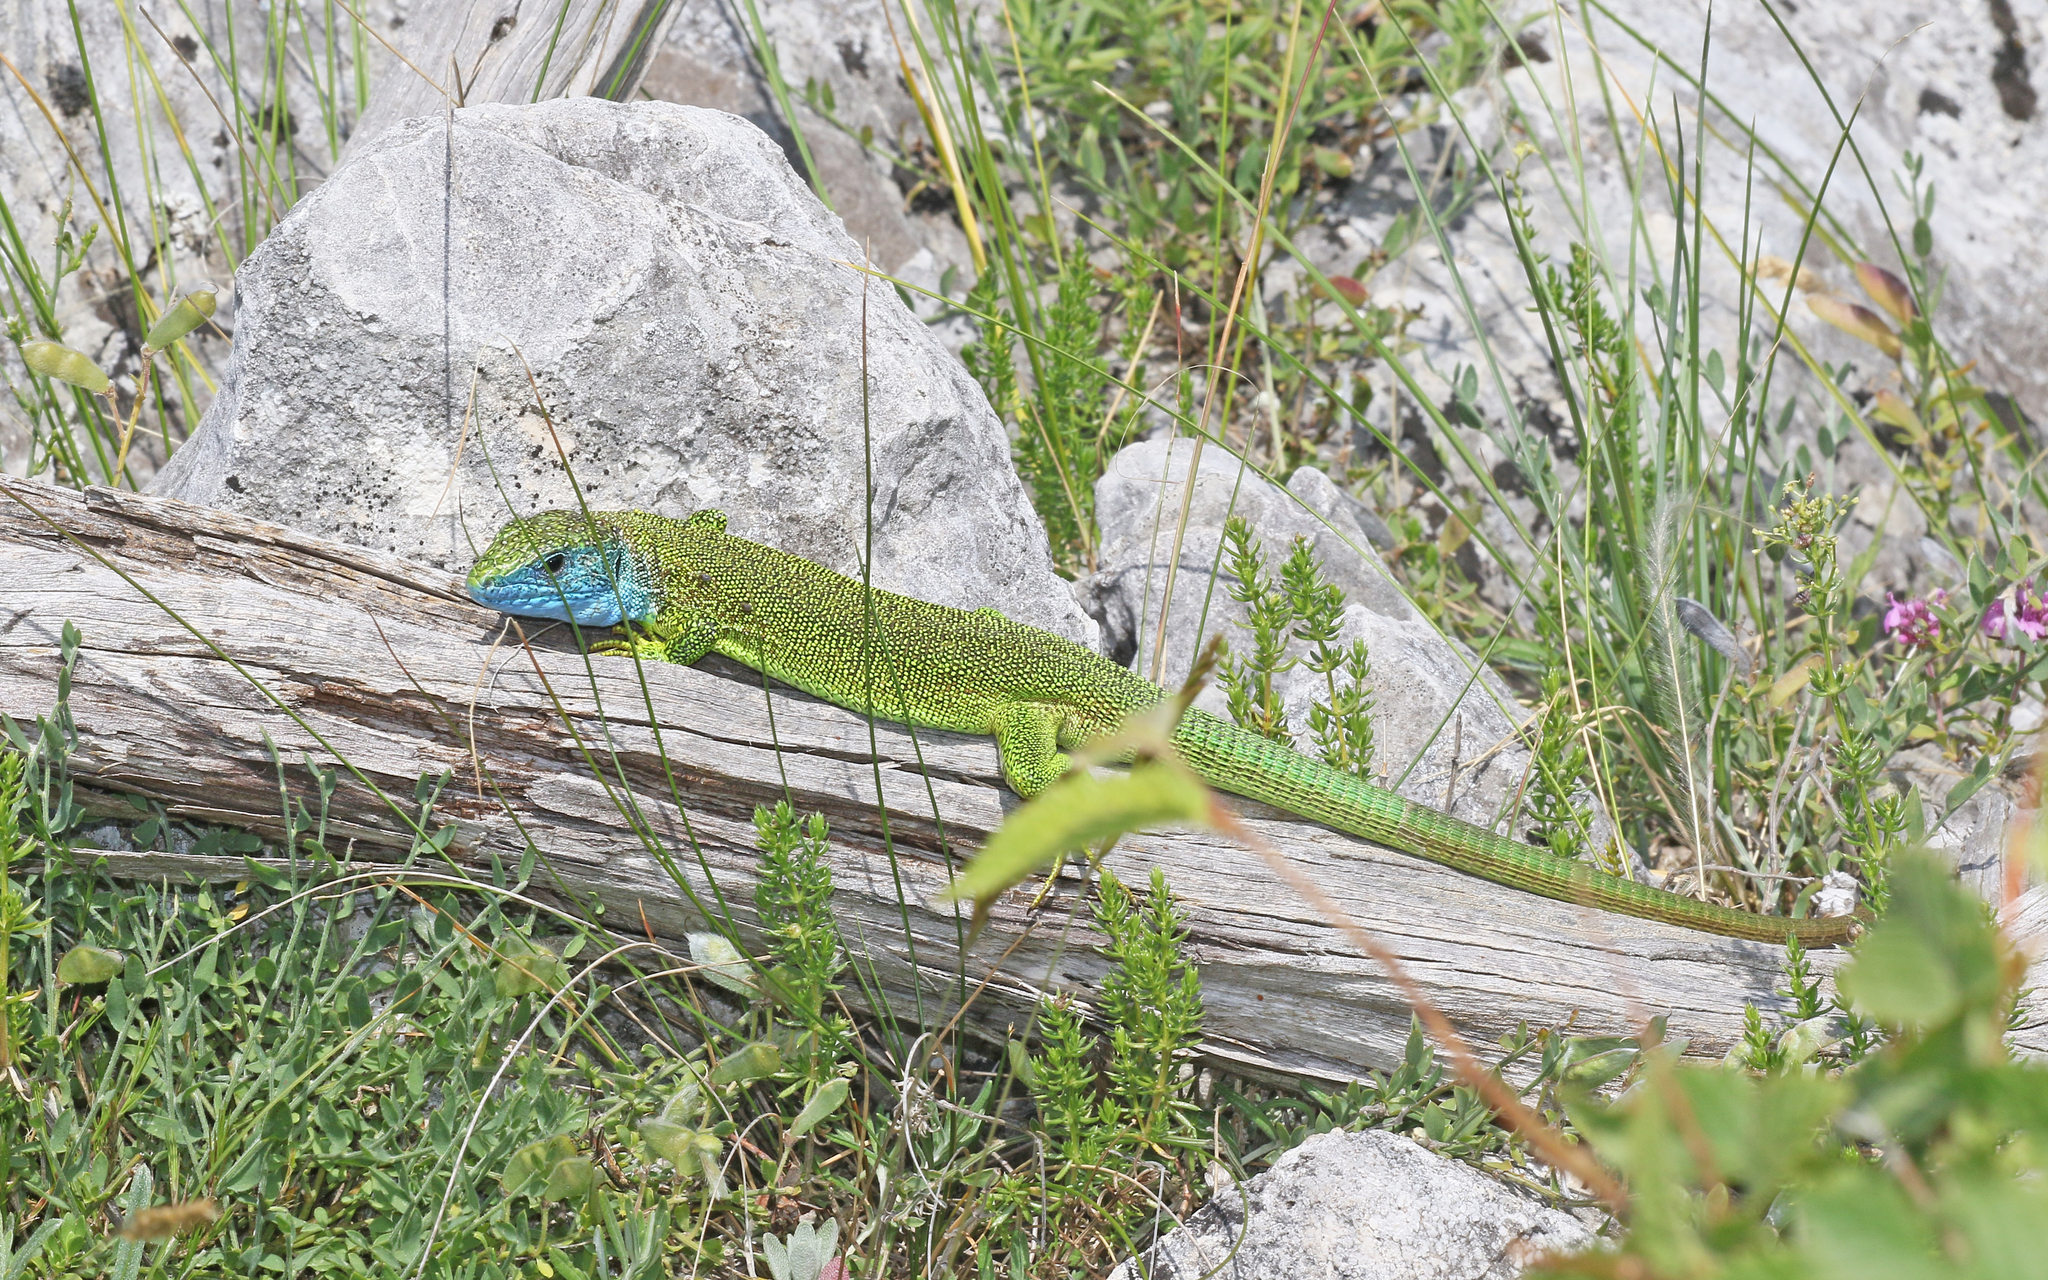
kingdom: Animalia
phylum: Chordata
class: Squamata
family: Lacertidae
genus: Lacerta
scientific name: Lacerta viridis
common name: European green lizard
